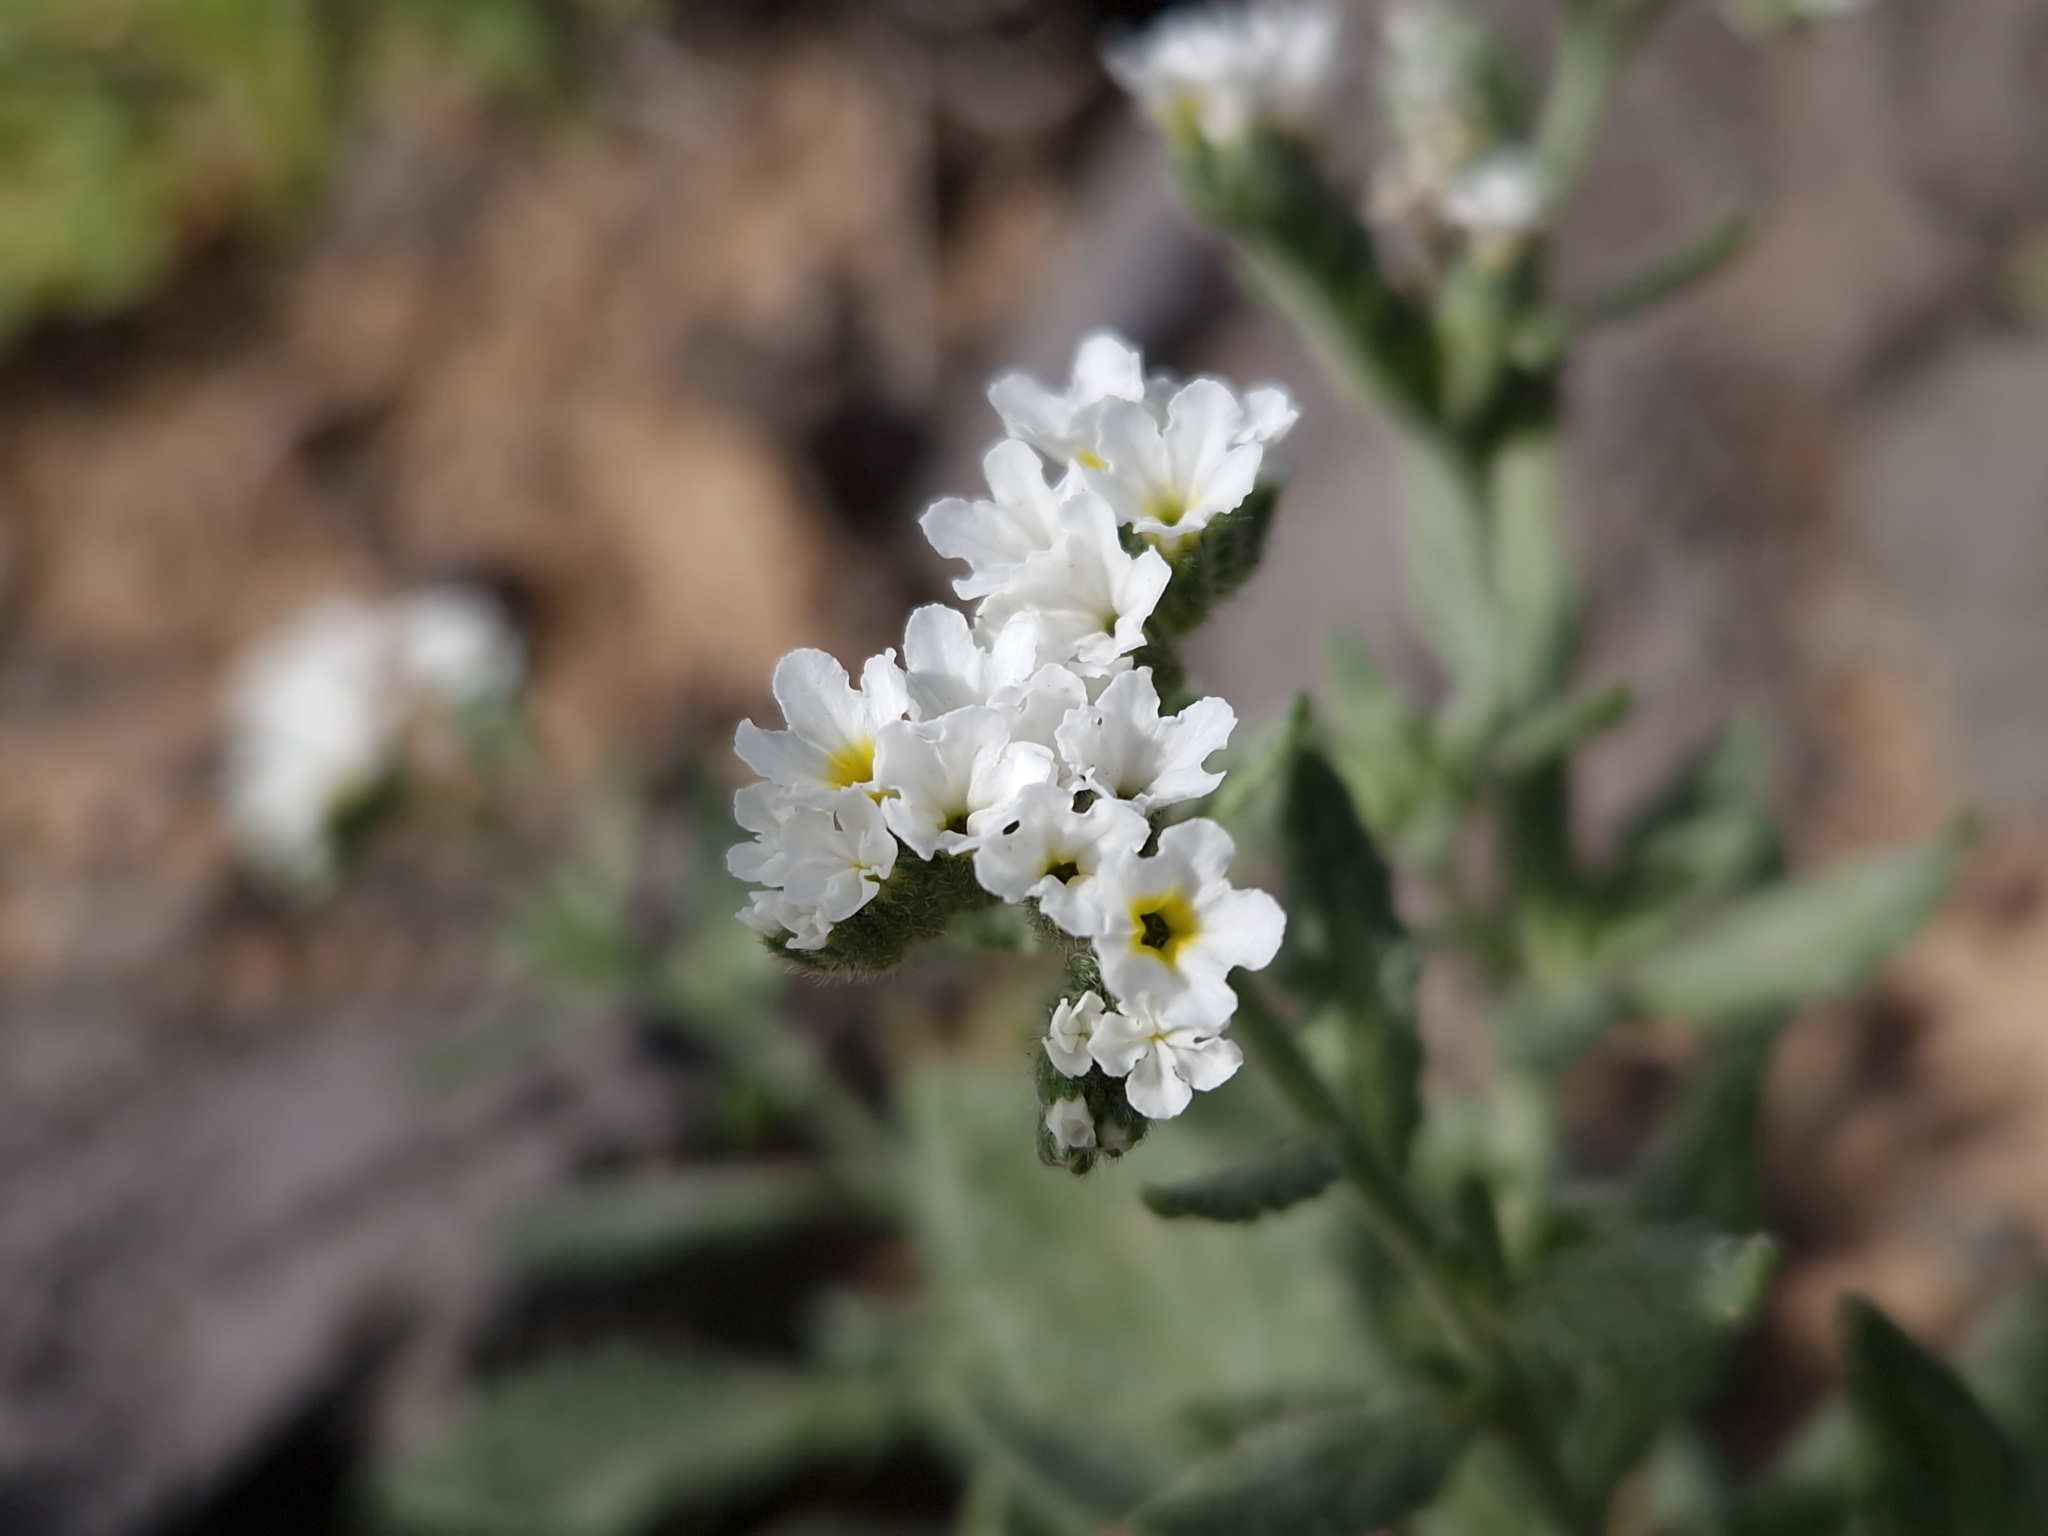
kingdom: Plantae
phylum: Tracheophyta
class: Magnoliopsida
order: Boraginales
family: Heliotropiaceae
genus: Heliotropium
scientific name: Heliotropium ramosissimum
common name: Wavy heliotrope
